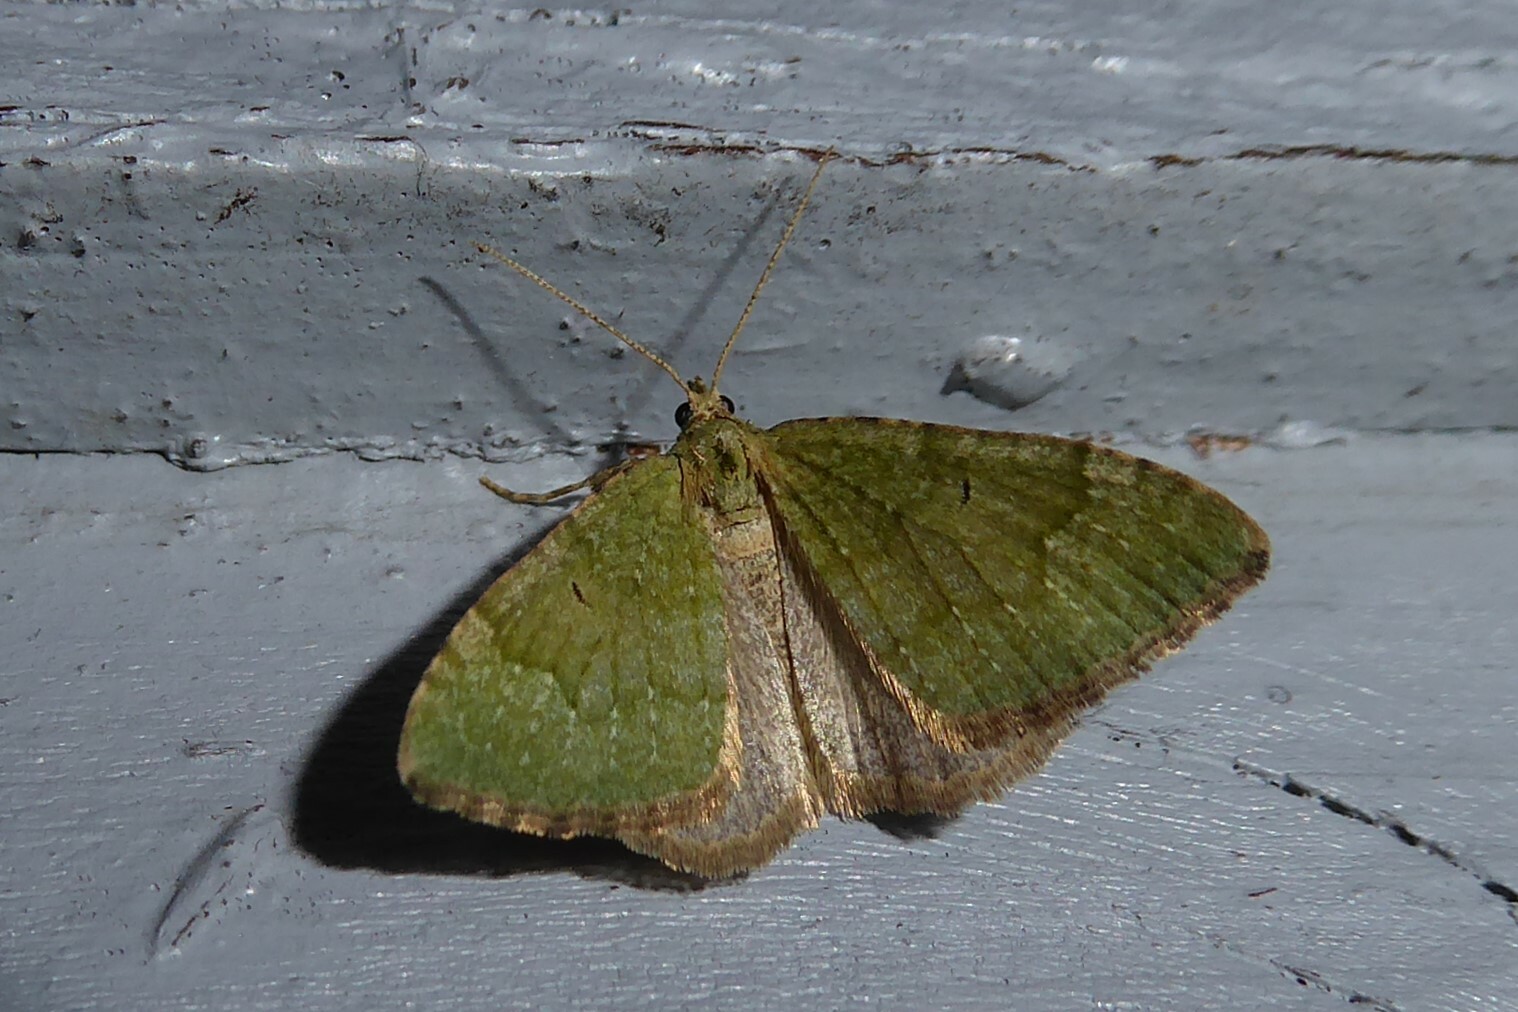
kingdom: Animalia
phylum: Arthropoda
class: Insecta
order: Lepidoptera
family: Geometridae
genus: Epyaxa
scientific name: Epyaxa rosearia
